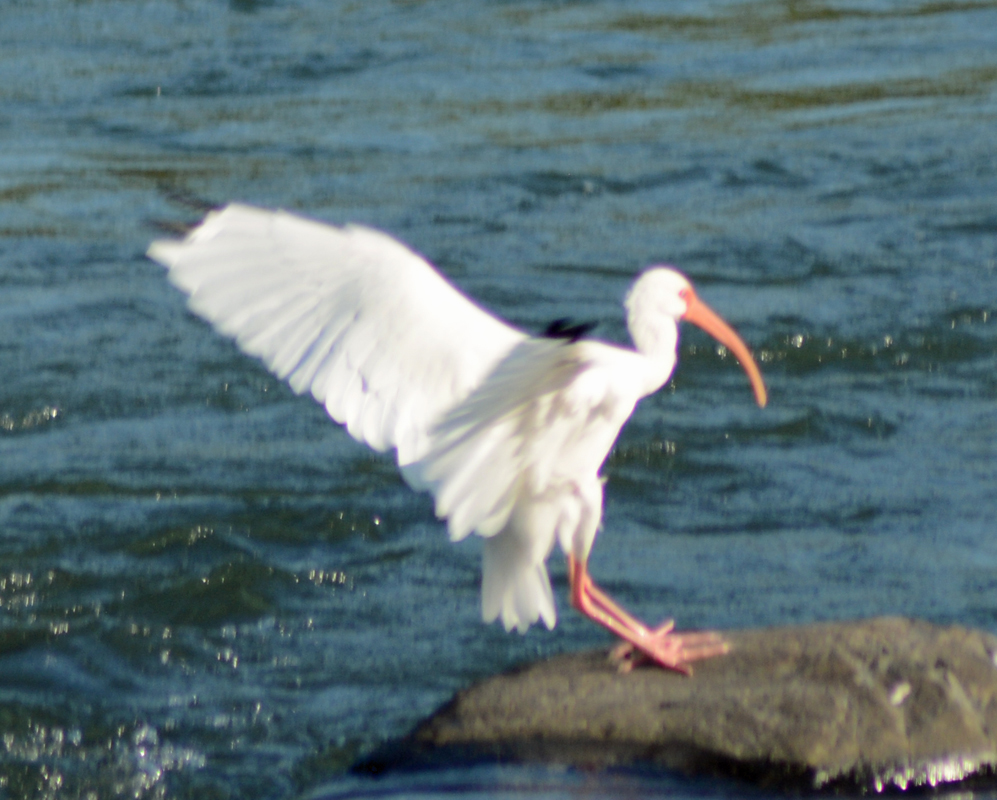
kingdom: Animalia
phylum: Chordata
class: Aves
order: Pelecaniformes
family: Threskiornithidae
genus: Eudocimus
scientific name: Eudocimus albus
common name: White ibis
